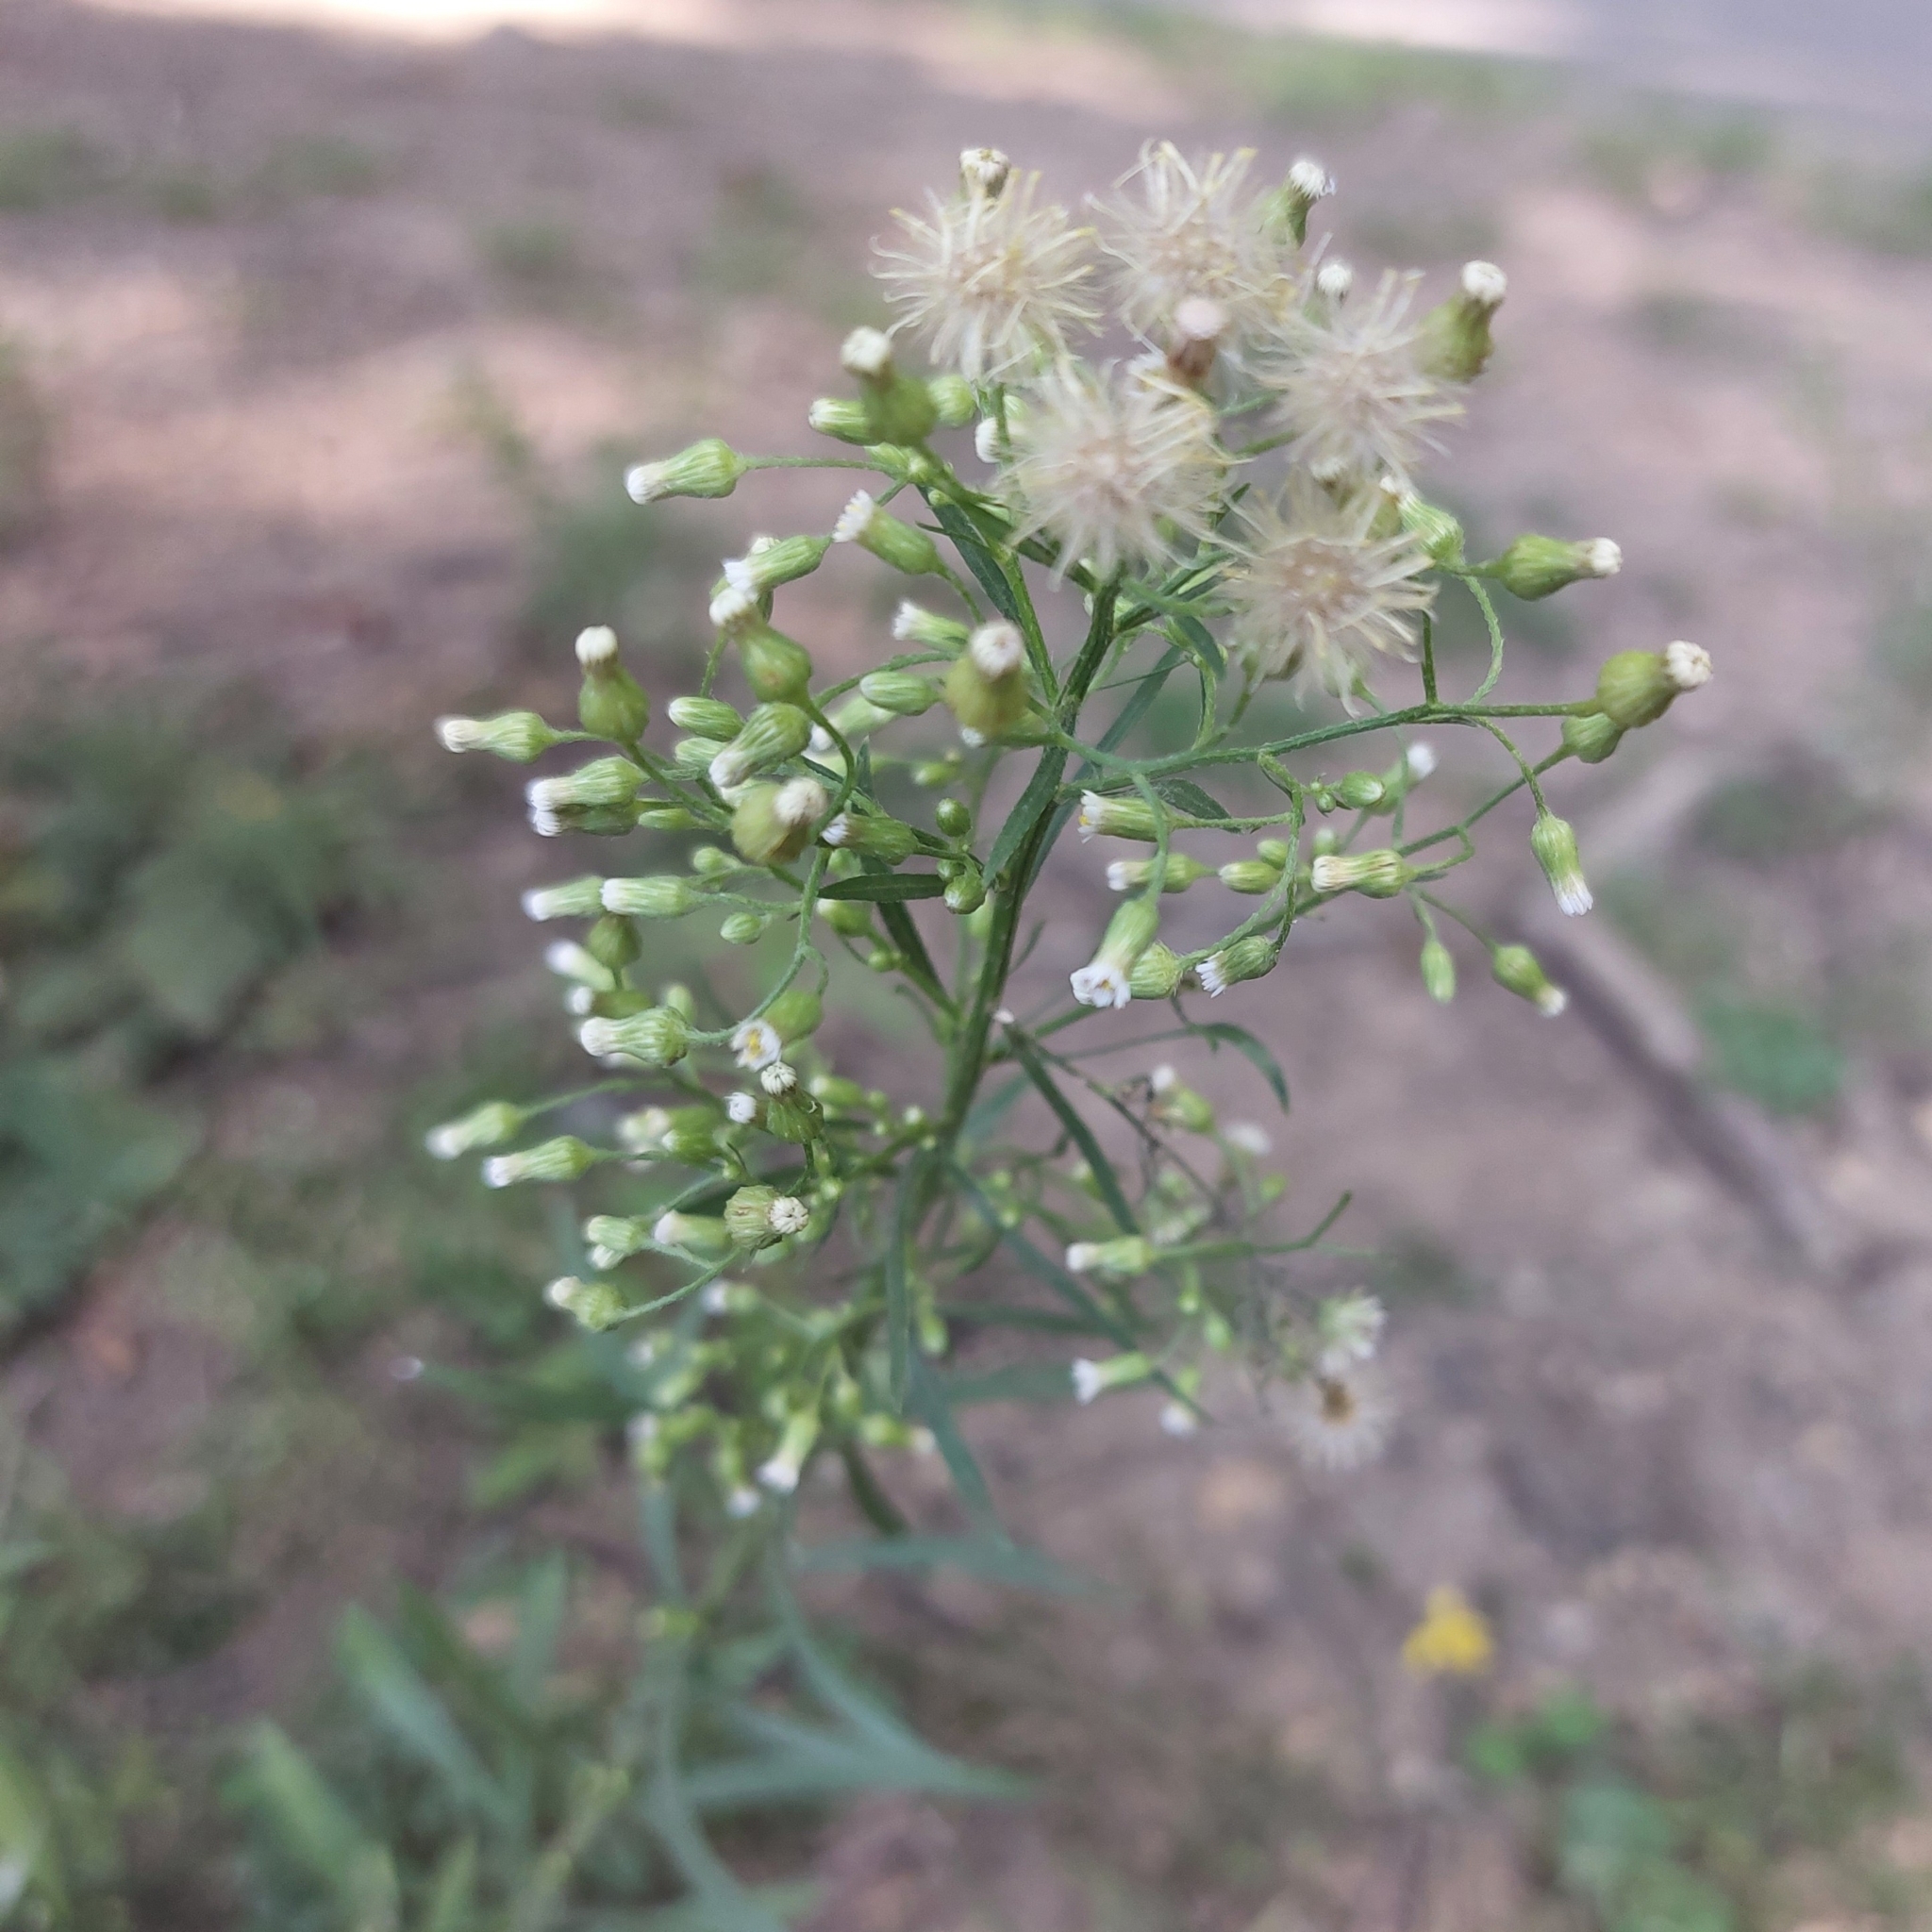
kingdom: Plantae
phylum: Tracheophyta
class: Magnoliopsida
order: Asterales
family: Asteraceae
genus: Erigeron
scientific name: Erigeron canadensis
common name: Canadian fleabane
